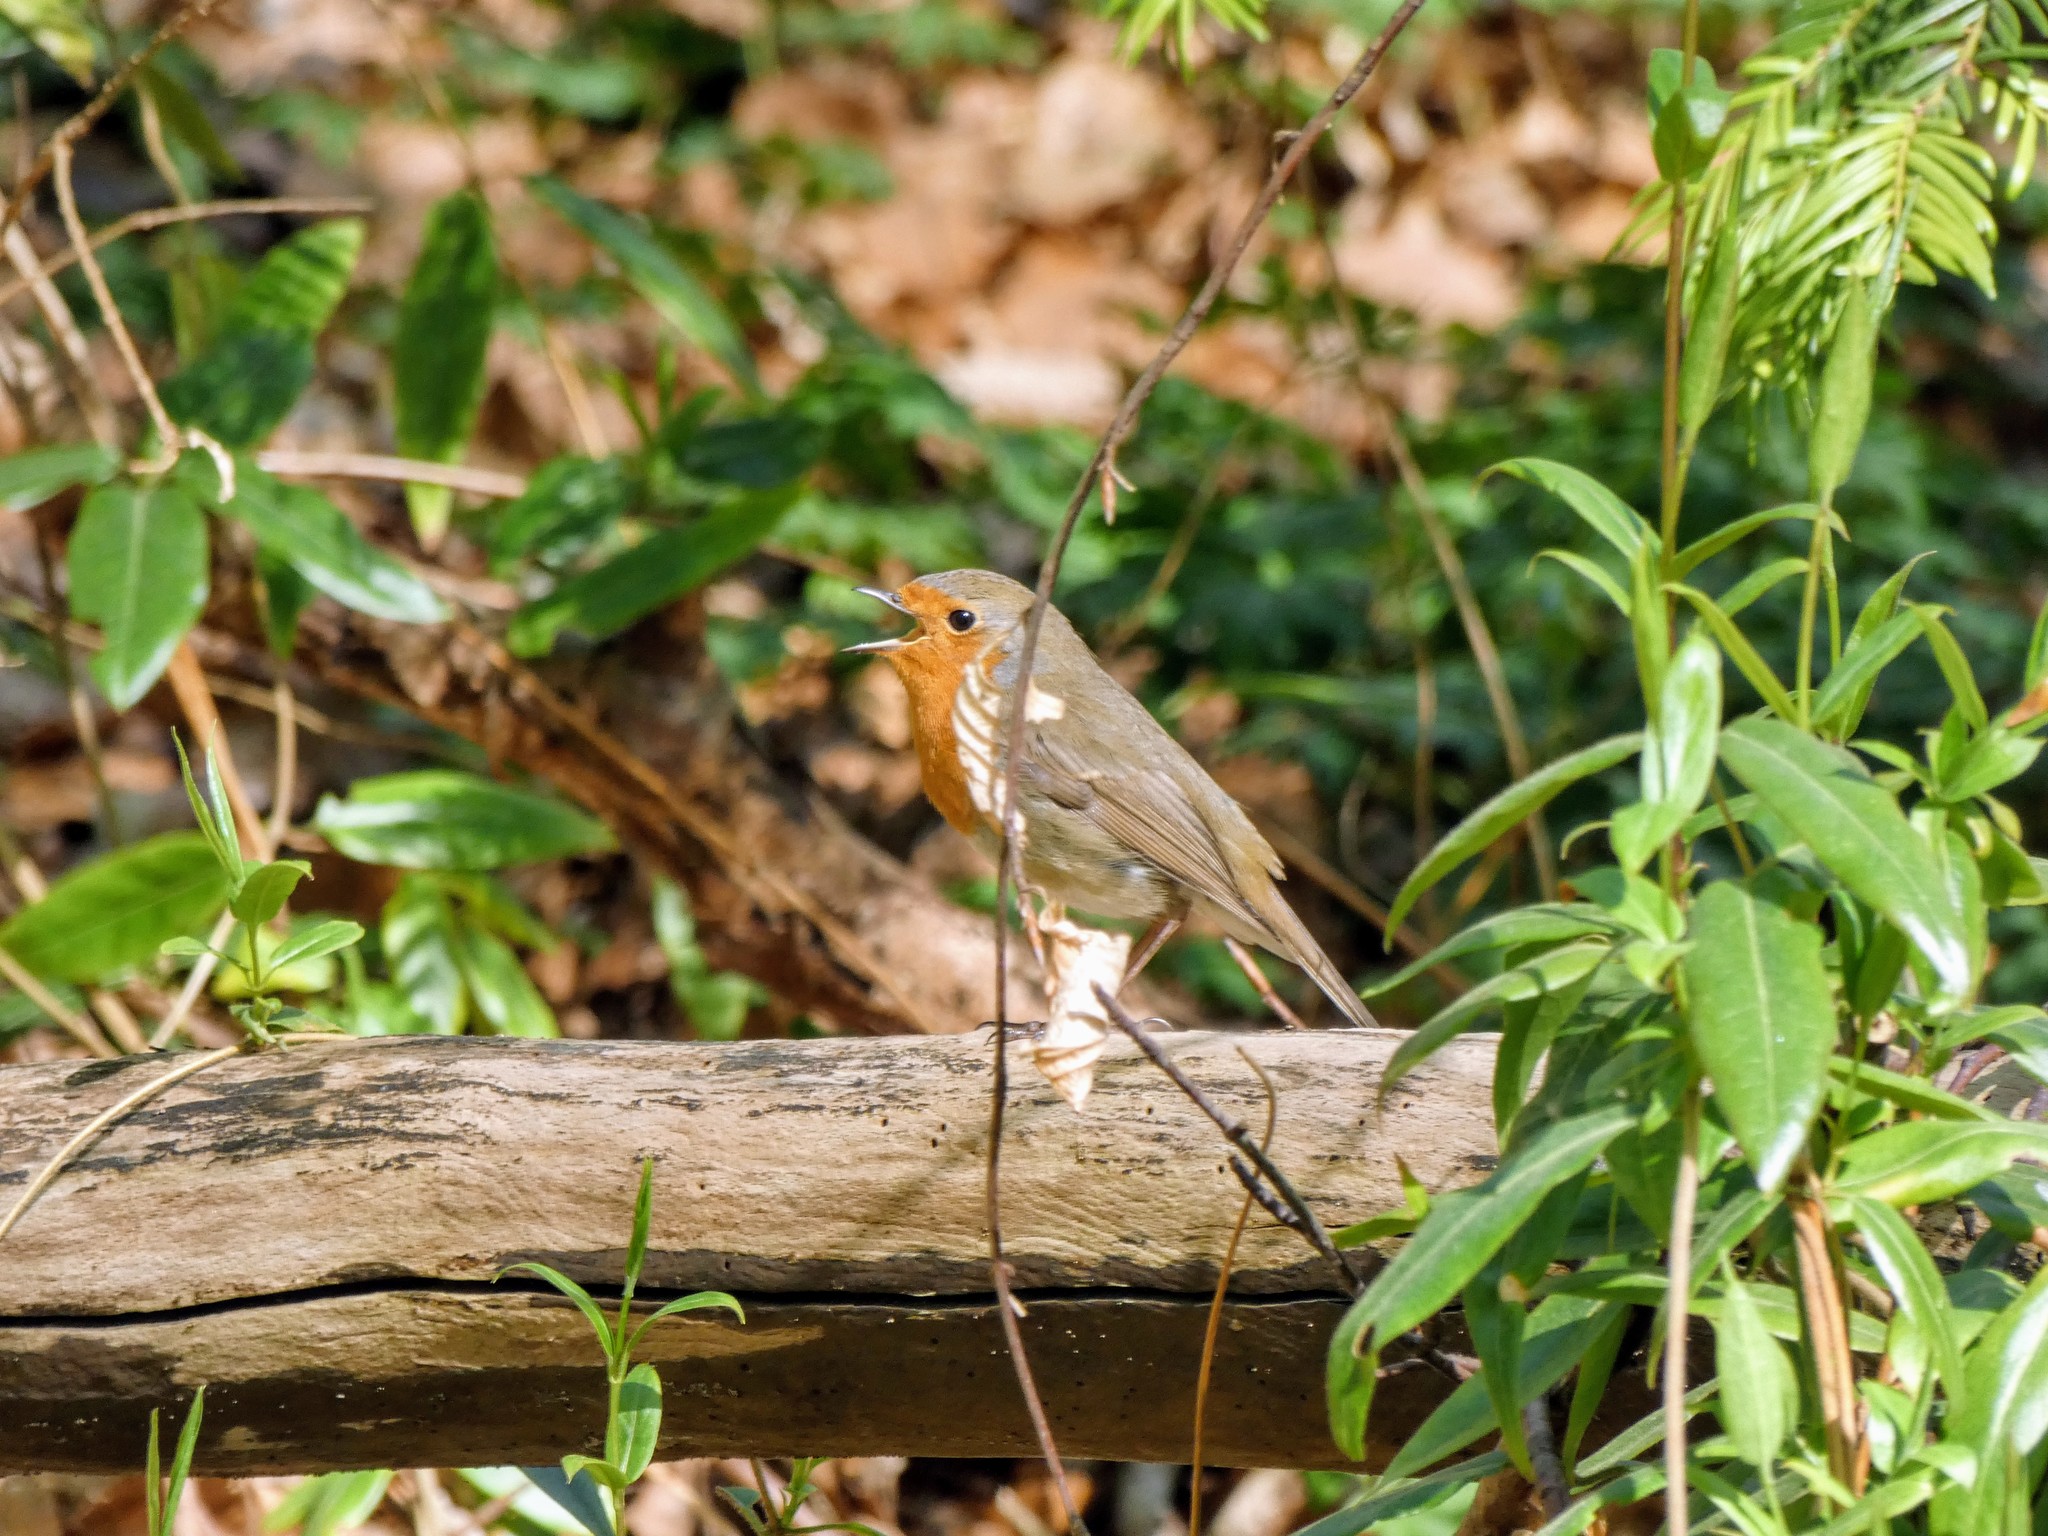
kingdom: Animalia
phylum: Chordata
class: Aves
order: Passeriformes
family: Muscicapidae
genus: Erithacus
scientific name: Erithacus rubecula
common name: European robin
